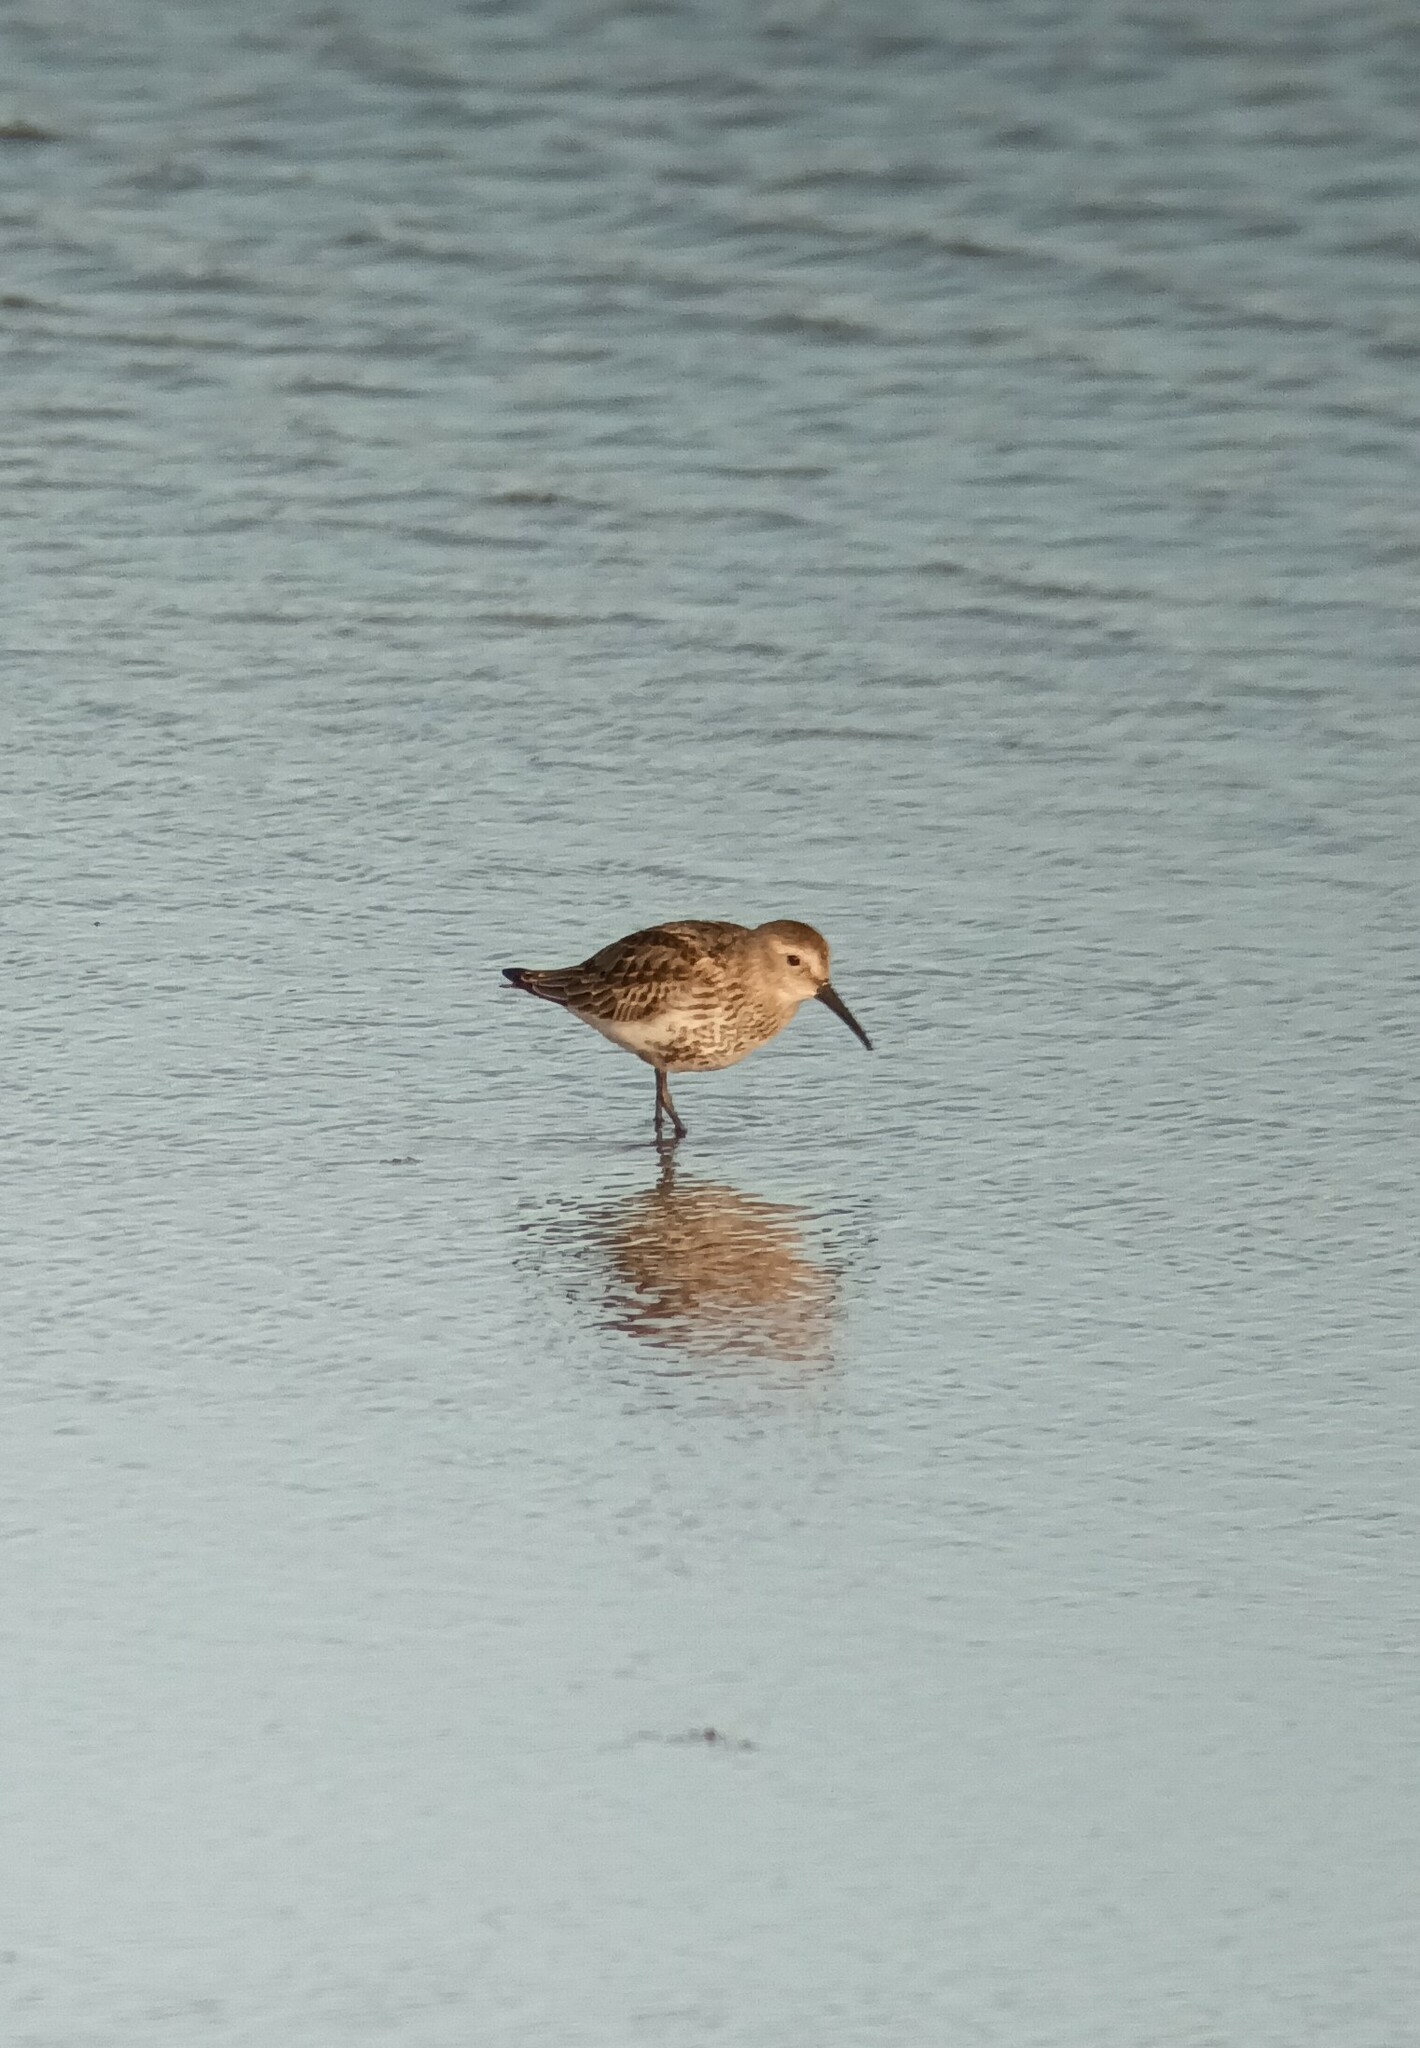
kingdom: Animalia
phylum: Chordata
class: Aves
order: Charadriiformes
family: Scolopacidae
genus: Calidris
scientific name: Calidris alpina
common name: Dunlin
